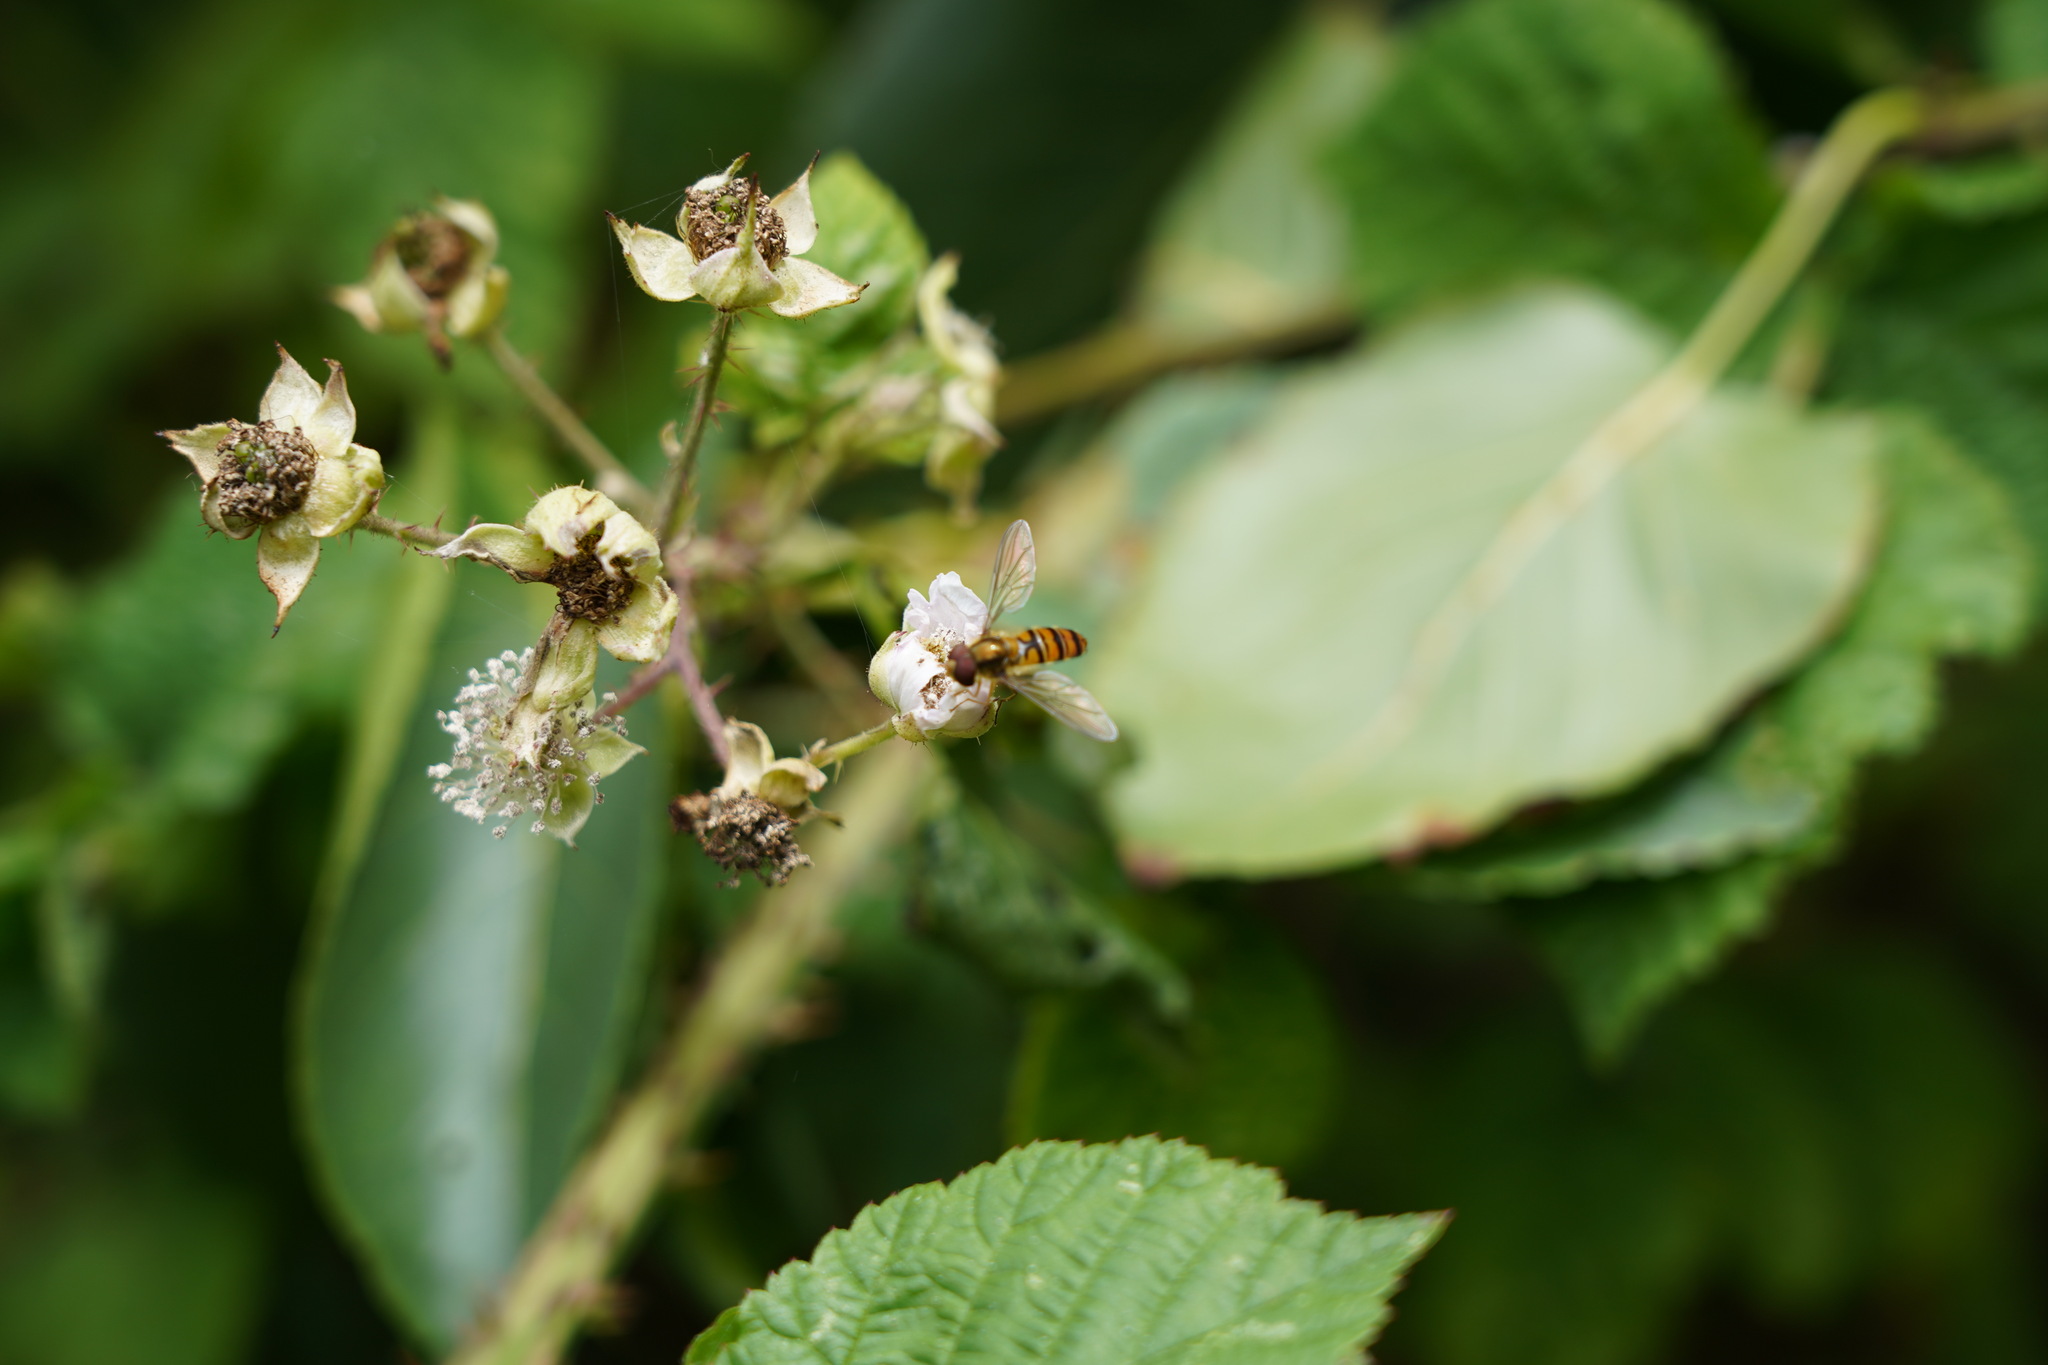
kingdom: Animalia
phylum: Arthropoda
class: Insecta
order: Diptera
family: Syrphidae
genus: Episyrphus
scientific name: Episyrphus balteatus
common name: Marmalade hoverfly
